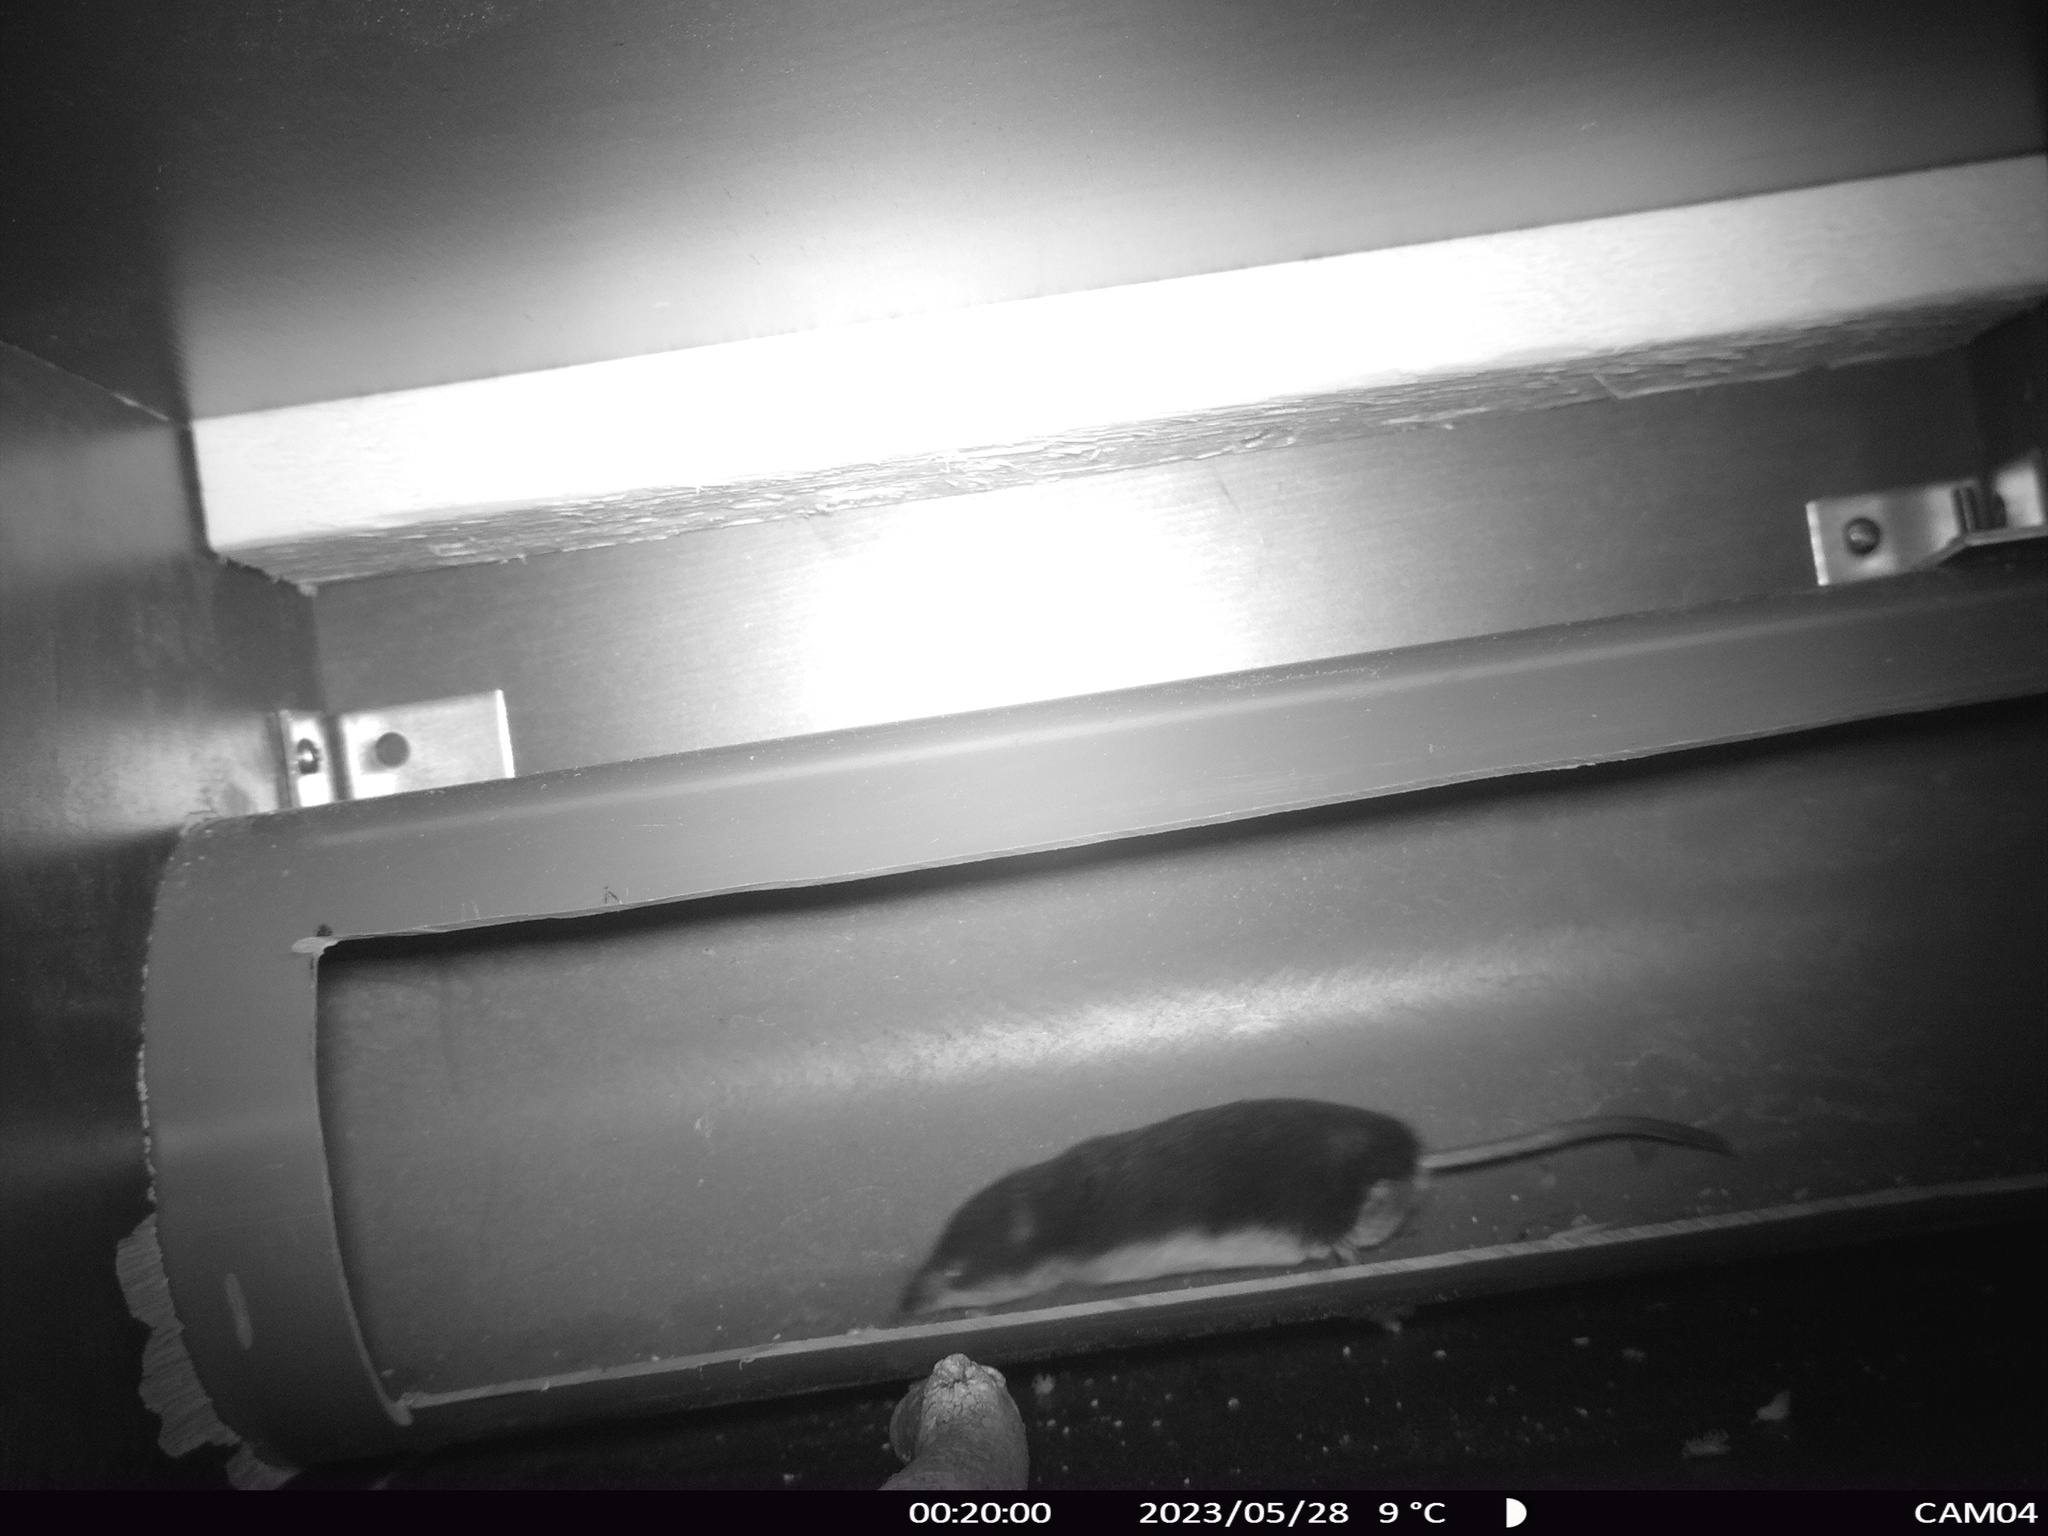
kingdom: Animalia
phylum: Chordata
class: Mammalia
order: Soricomorpha
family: Soricidae
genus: Neomys
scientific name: Neomys fodiens
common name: Eurasian water shrew
